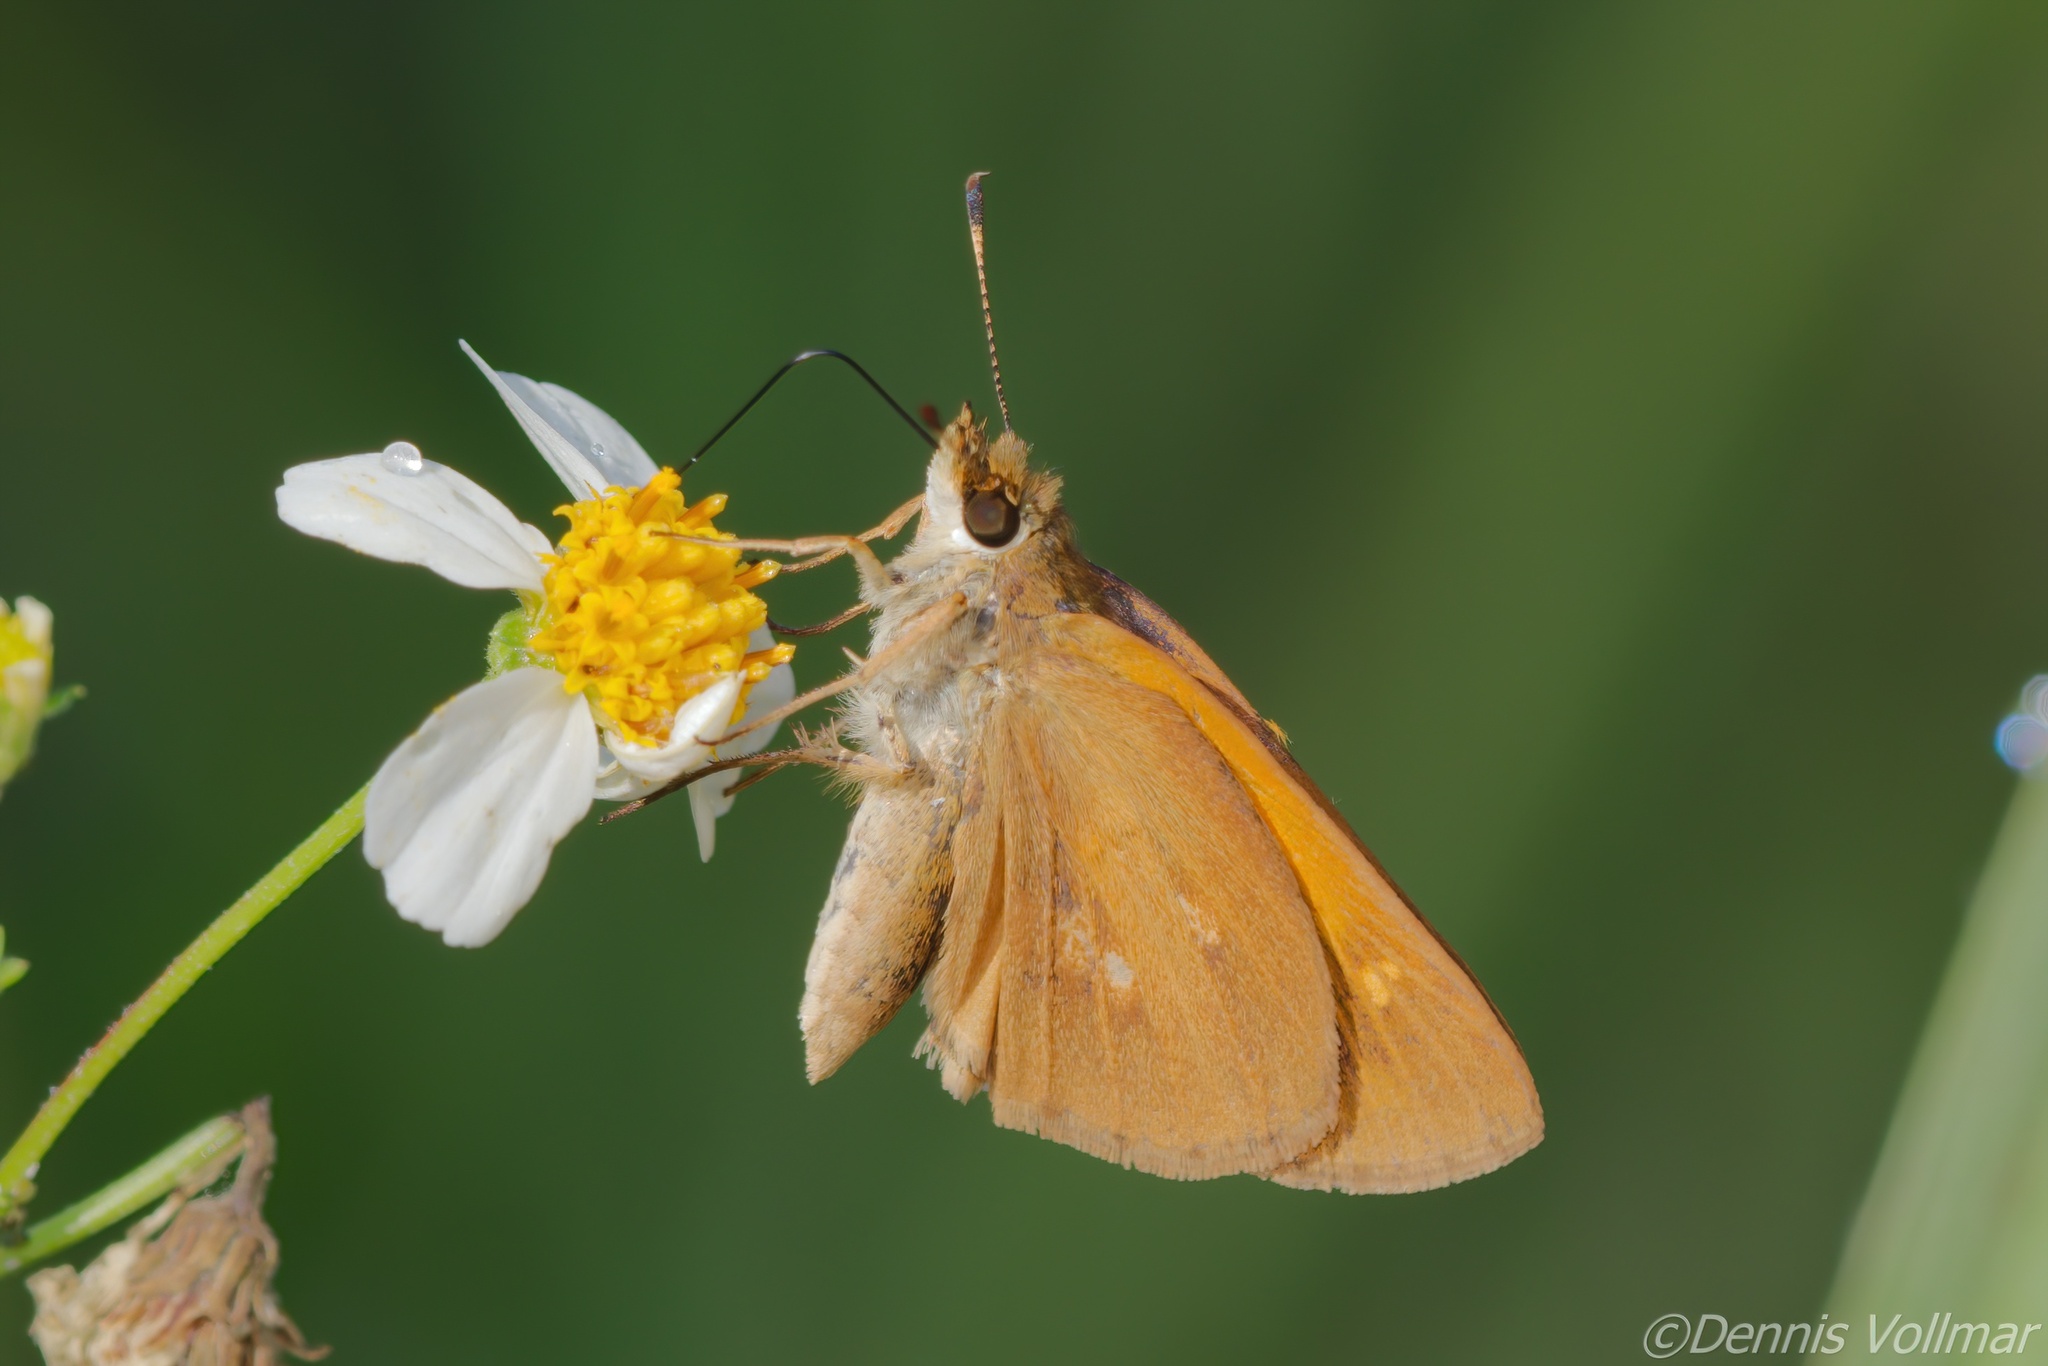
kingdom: Animalia
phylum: Arthropoda
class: Insecta
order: Lepidoptera
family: Hesperiidae
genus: Poanes
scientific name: Poanes viator
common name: Broad-winged skipper
